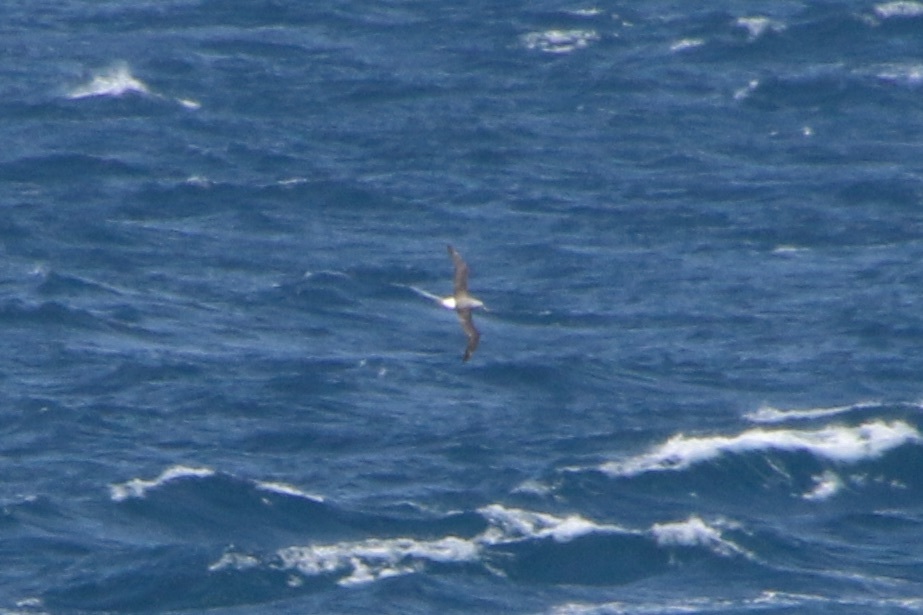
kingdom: Animalia
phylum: Chordata
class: Aves
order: Procellariiformes
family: Diomedeidae
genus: Thalassarche
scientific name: Thalassarche cauta
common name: Shy albatross
